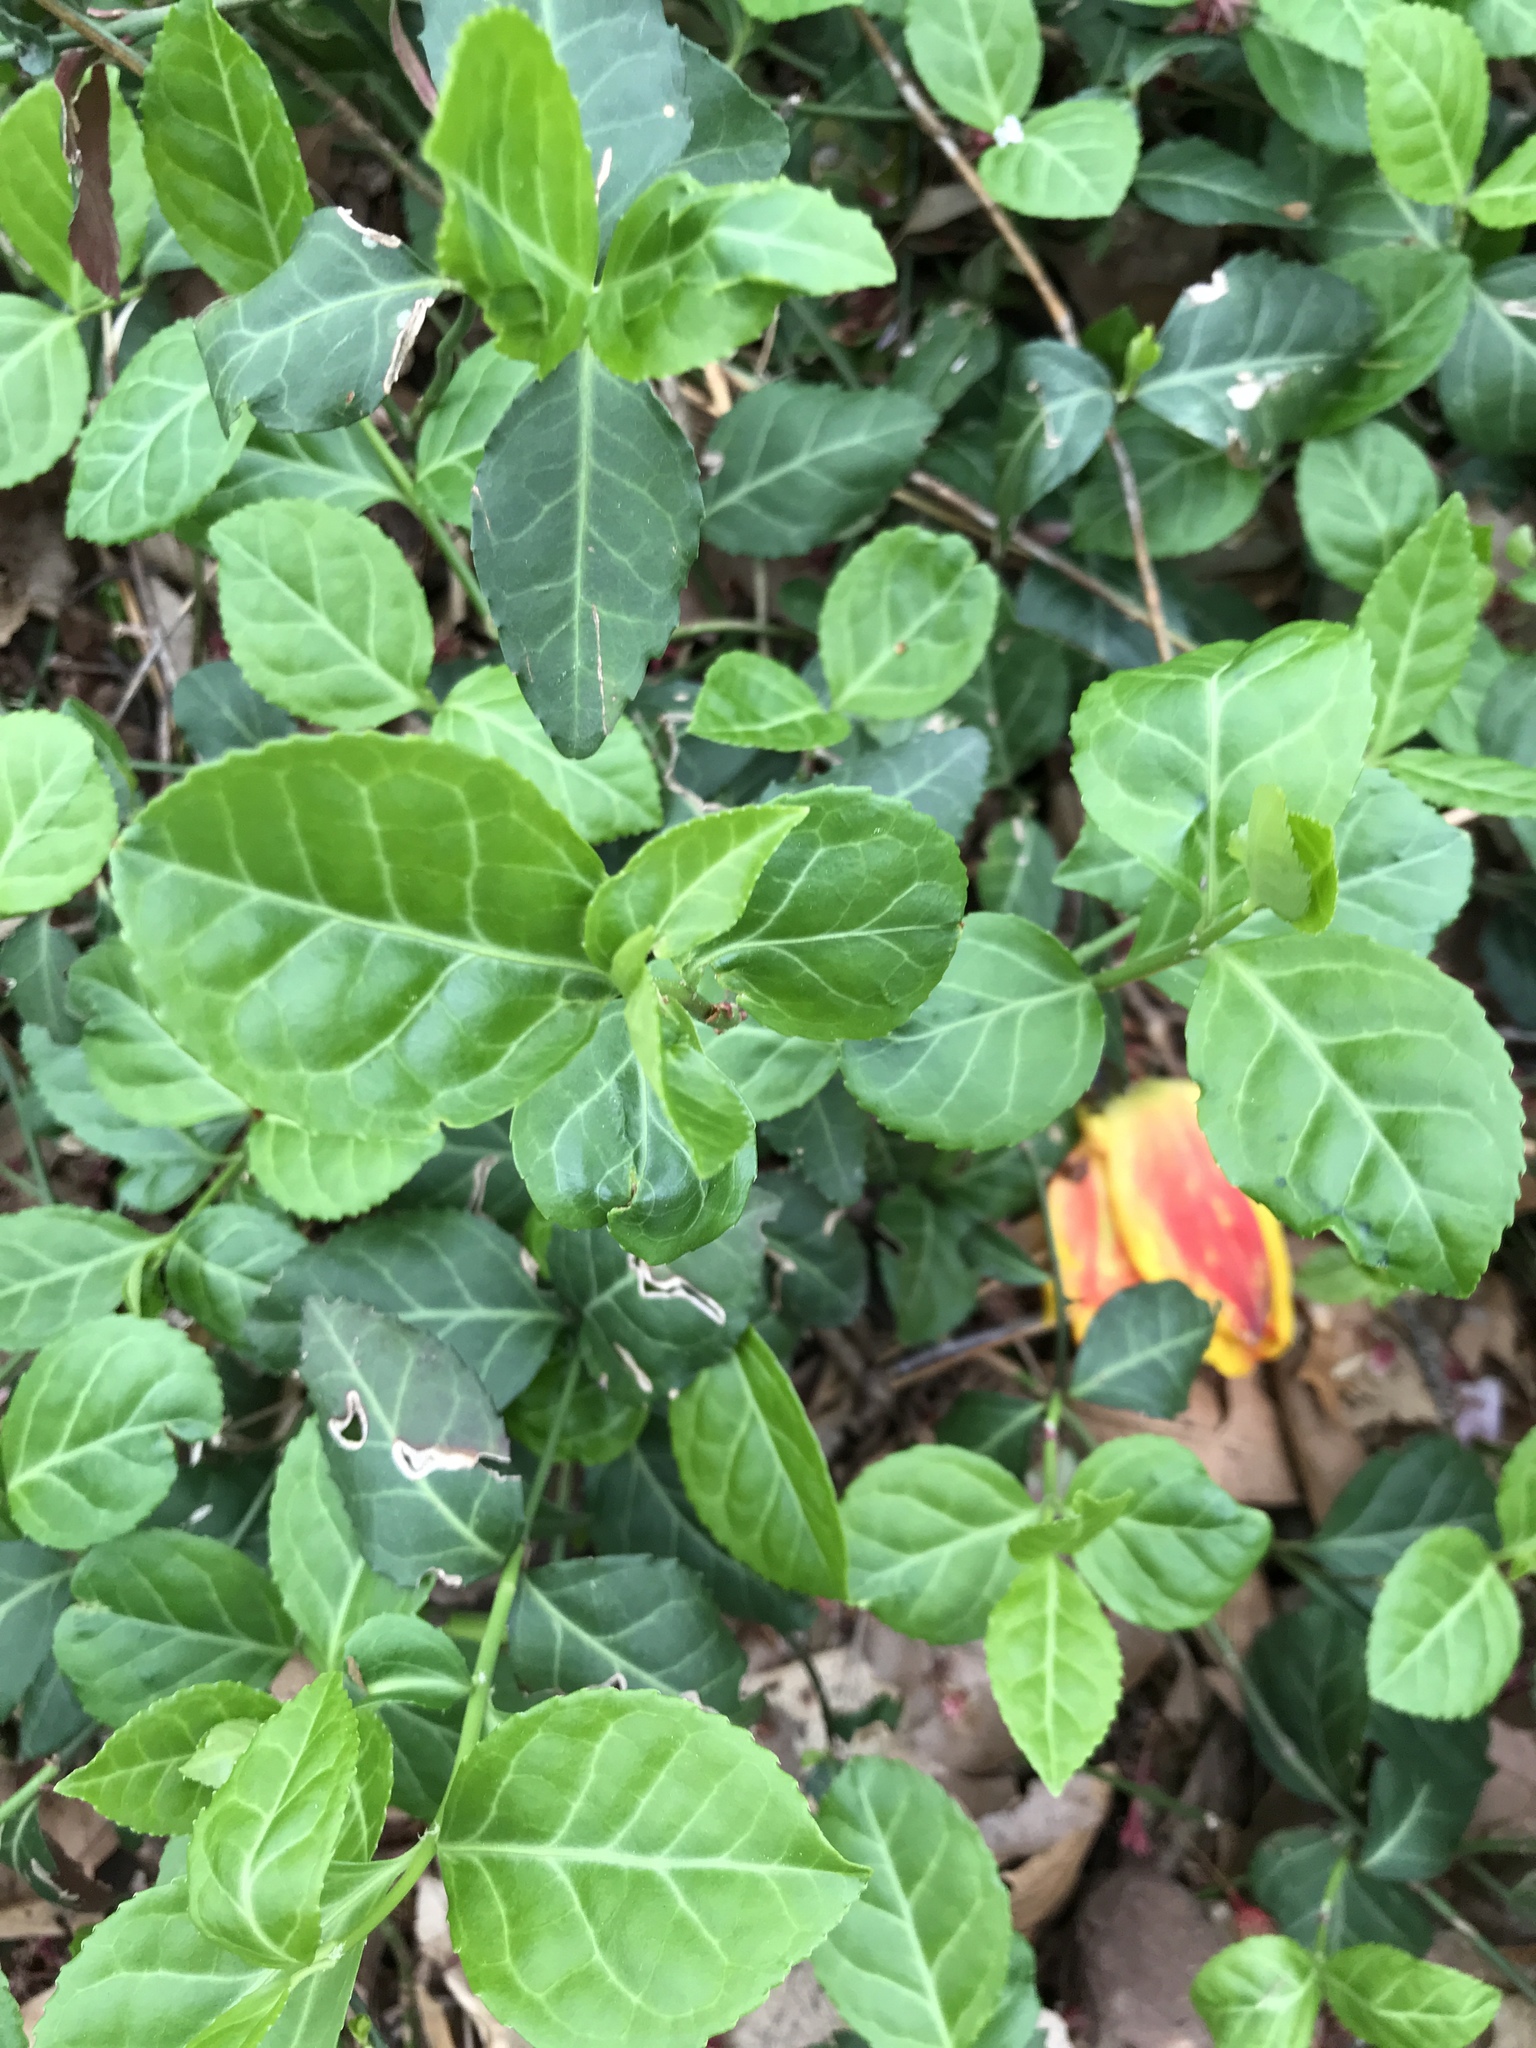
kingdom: Plantae
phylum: Tracheophyta
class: Magnoliopsida
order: Celastrales
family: Celastraceae
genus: Euonymus
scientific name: Euonymus fortunei
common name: Climbing euonymus
